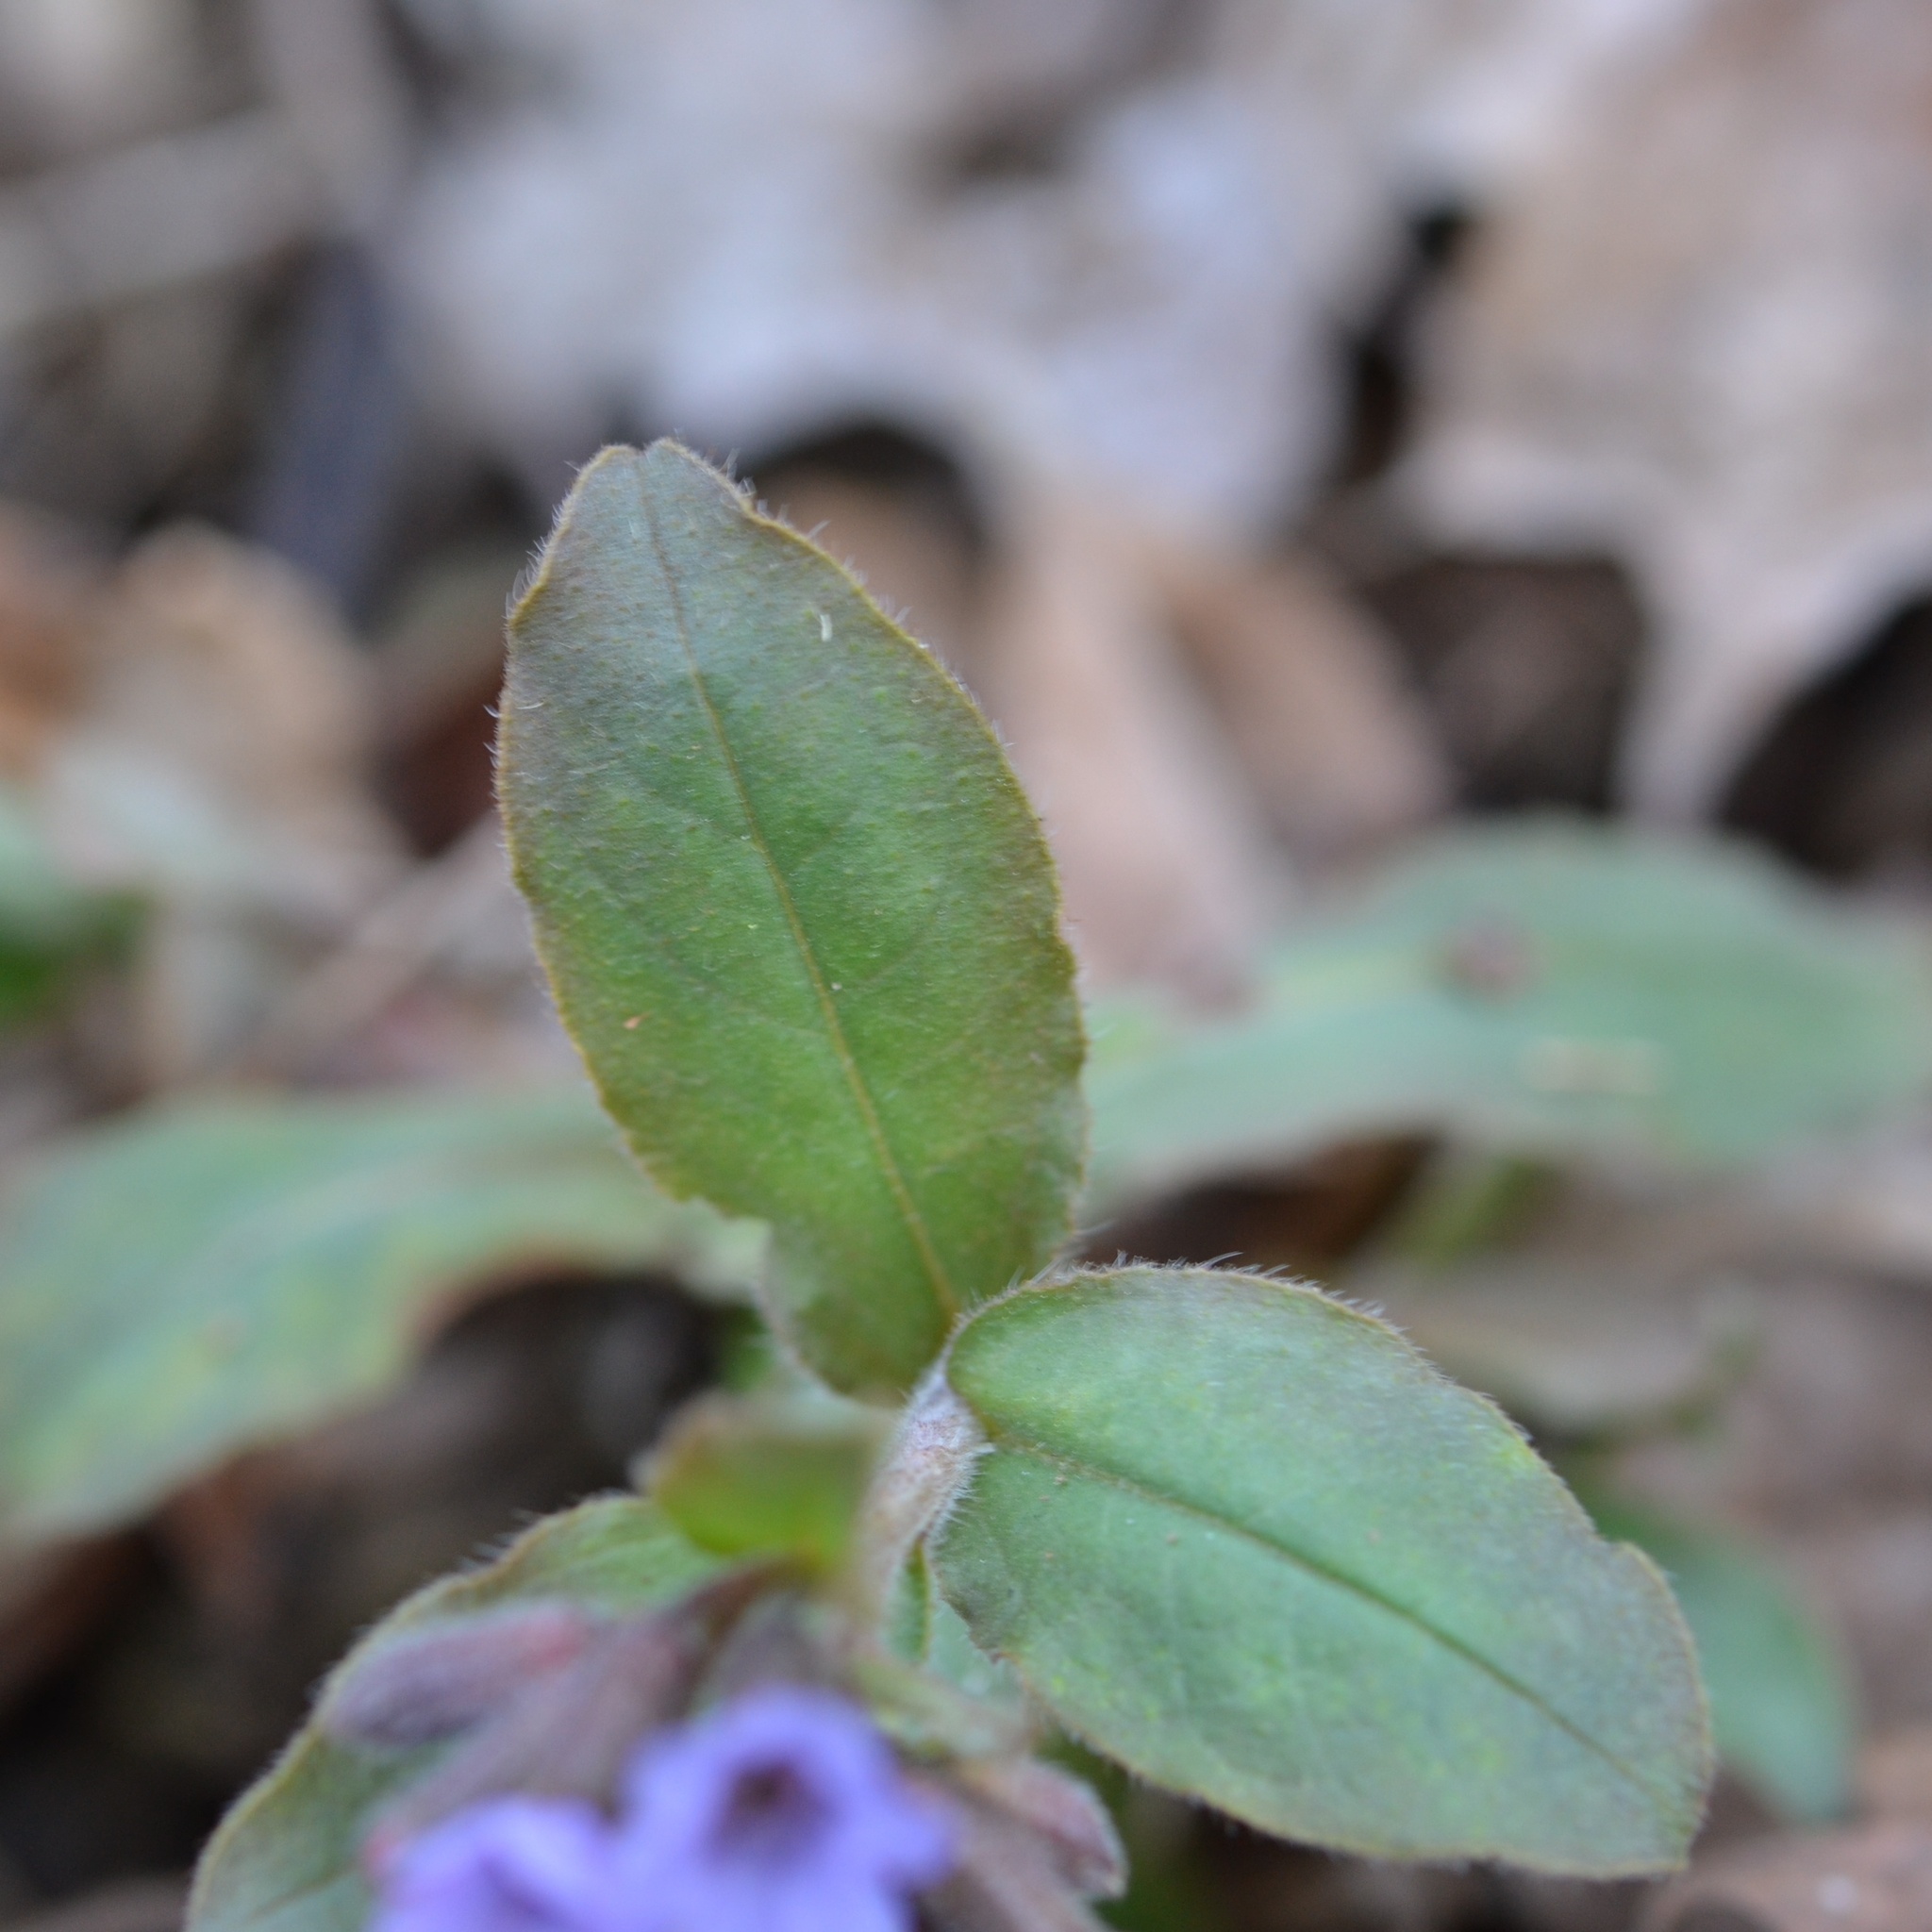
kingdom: Plantae
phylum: Tracheophyta
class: Magnoliopsida
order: Boraginales
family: Boraginaceae
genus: Pulmonaria
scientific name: Pulmonaria obscura
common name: Suffolk lungwort
